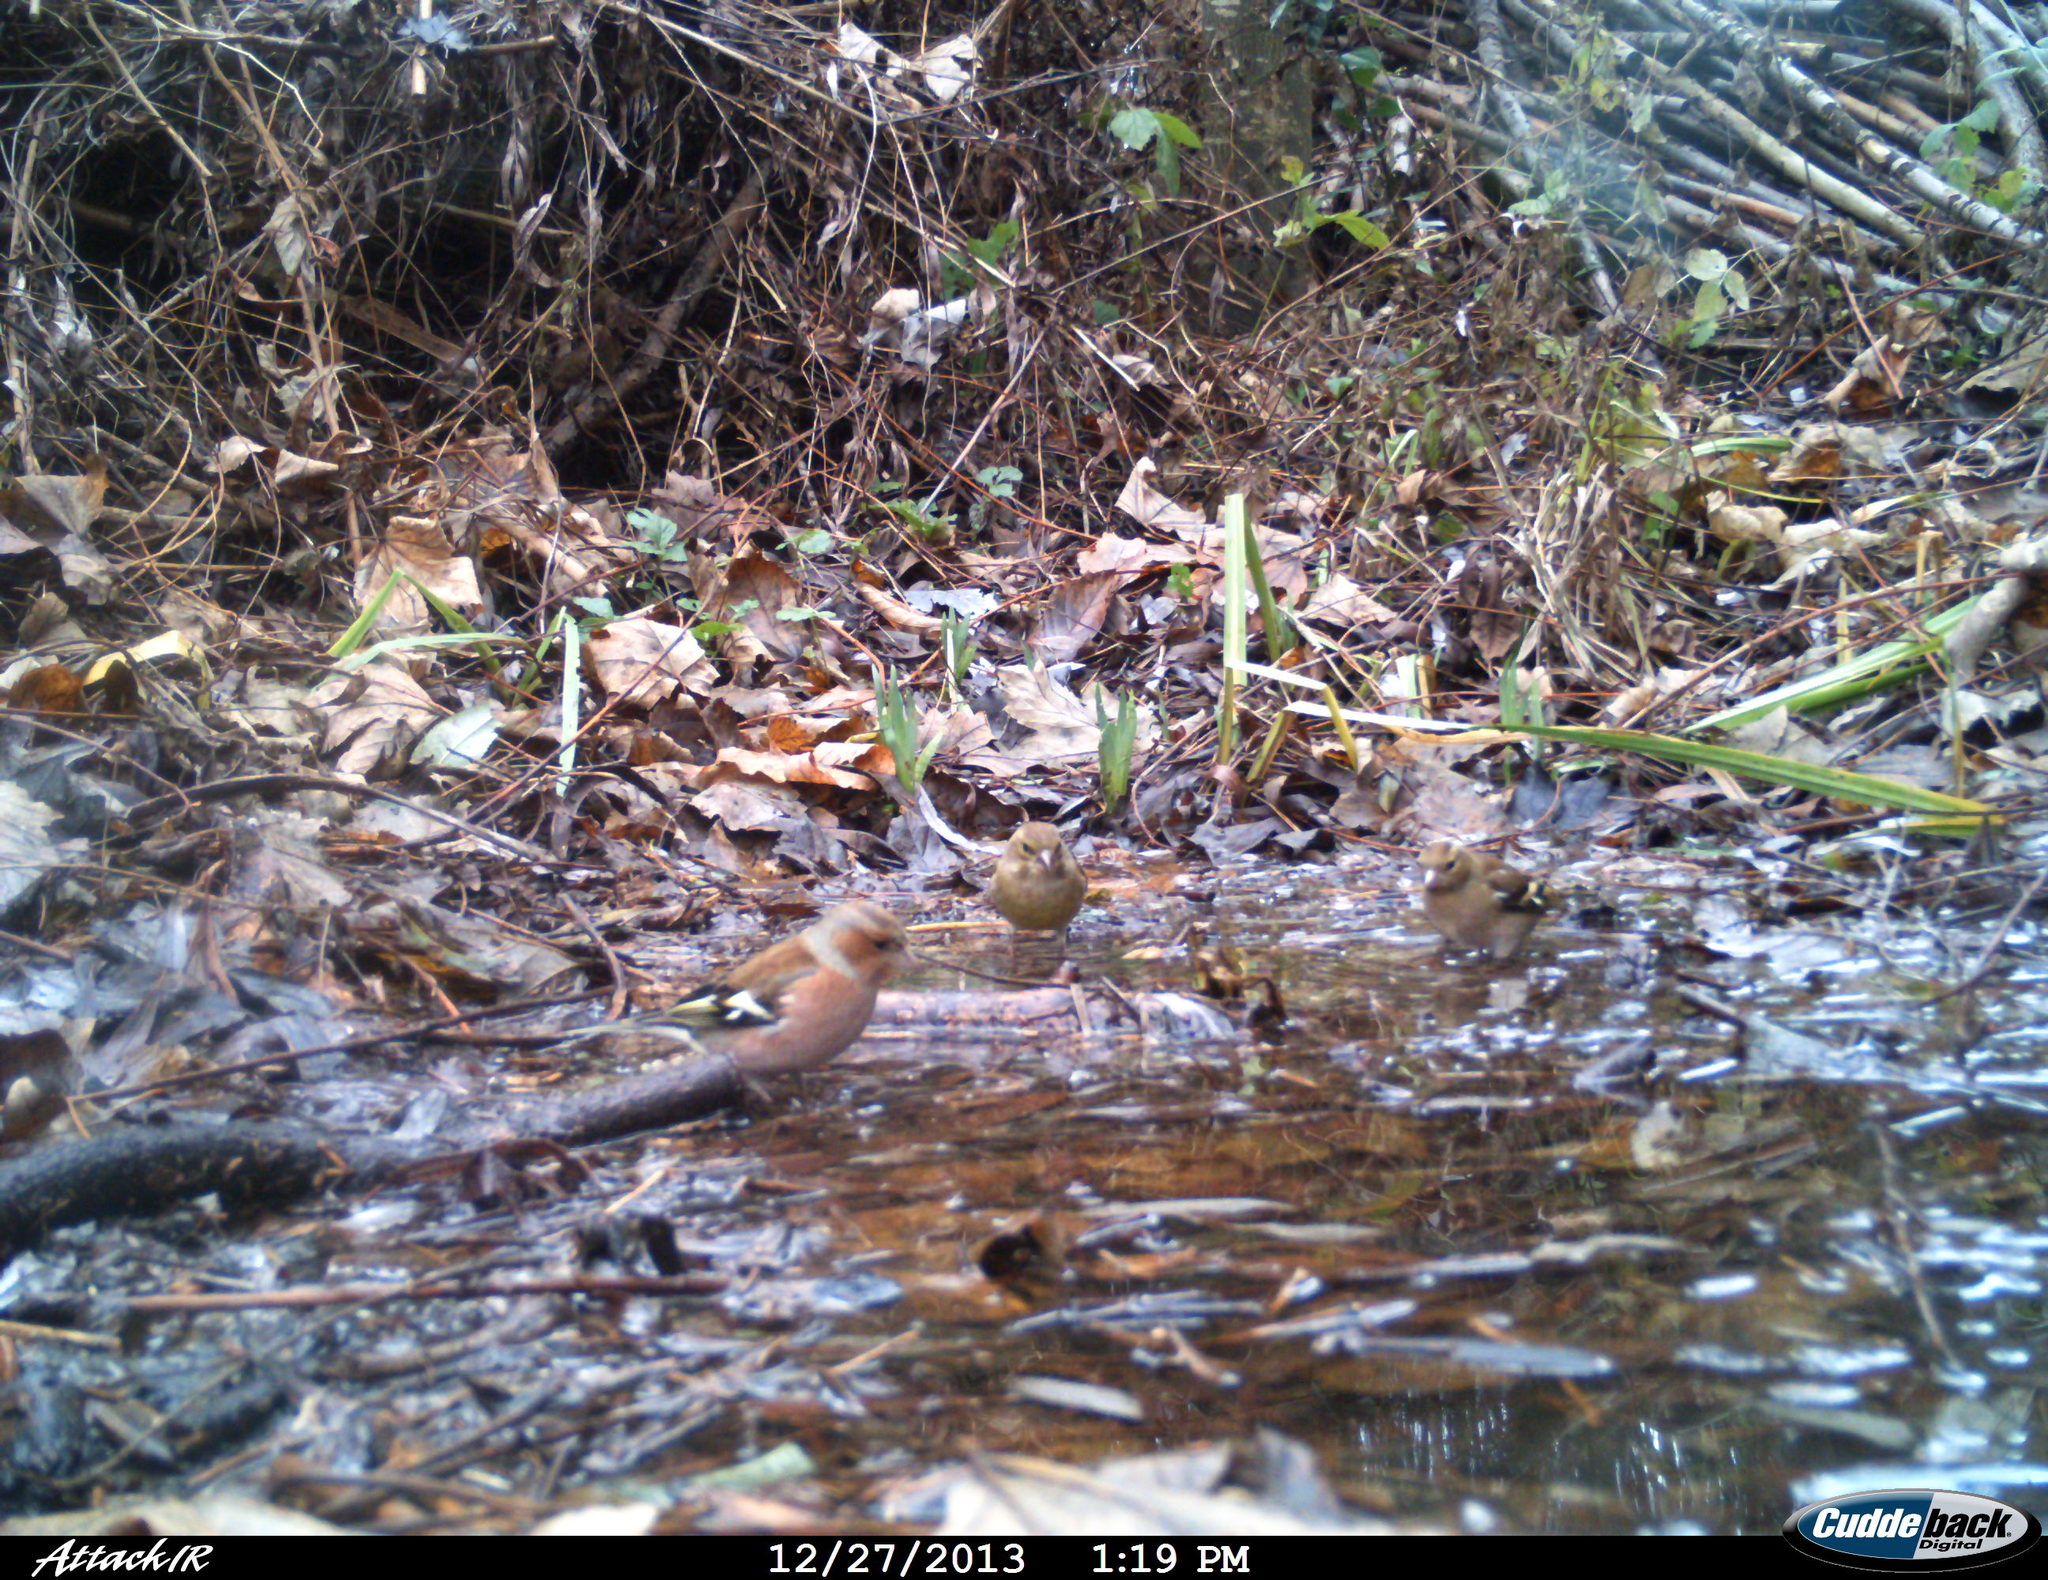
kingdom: Animalia
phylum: Chordata
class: Aves
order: Passeriformes
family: Fringillidae
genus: Fringilla
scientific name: Fringilla coelebs
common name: Common chaffinch
